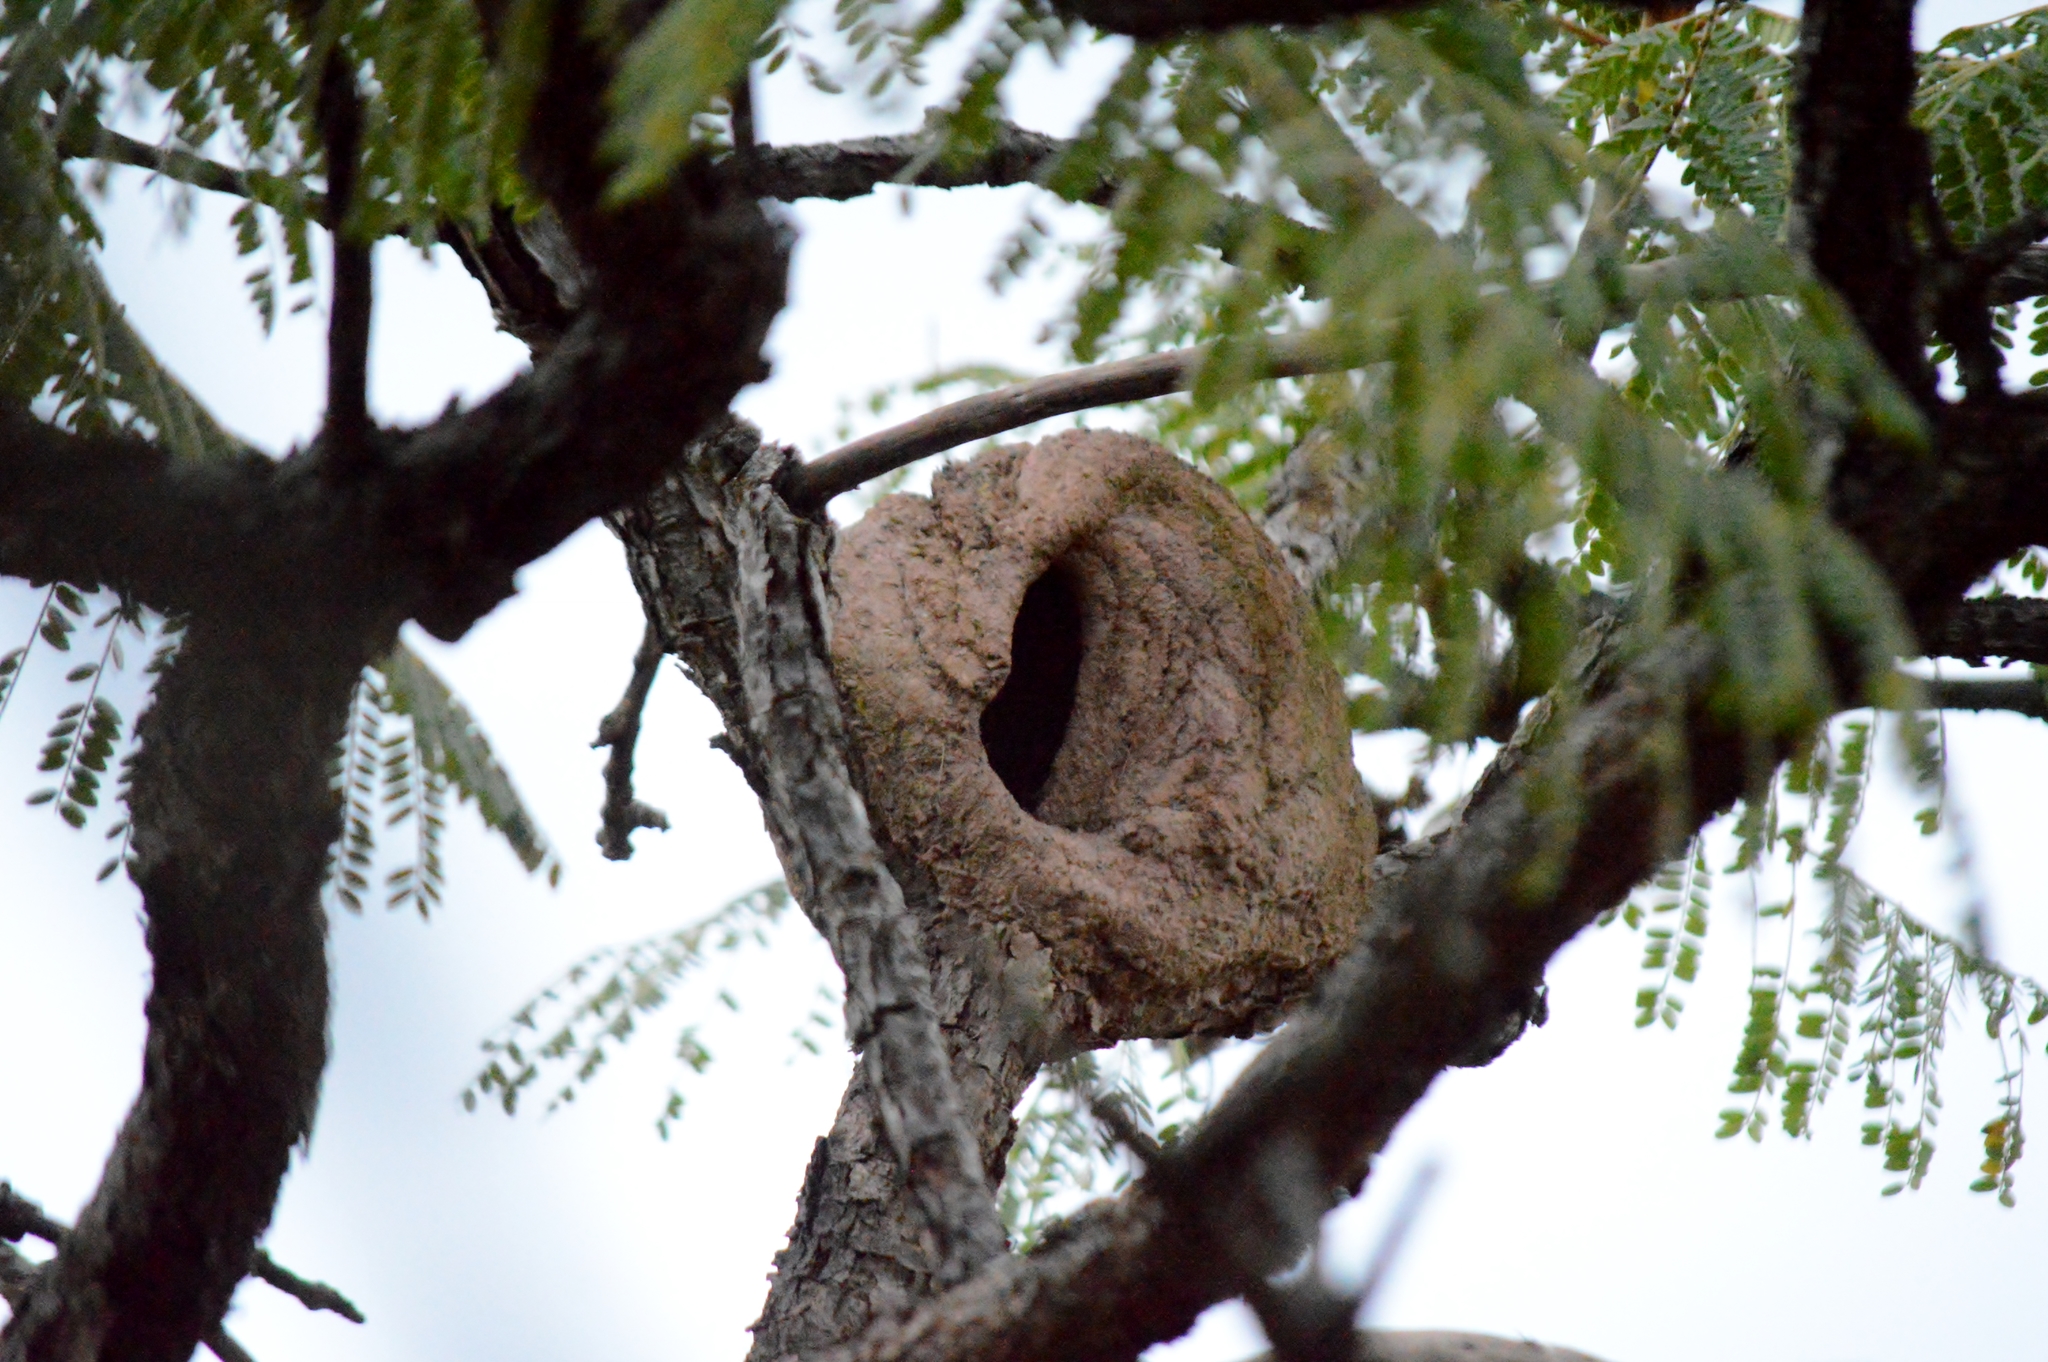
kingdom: Animalia
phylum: Chordata
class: Aves
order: Passeriformes
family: Furnariidae
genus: Furnarius
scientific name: Furnarius rufus
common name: Rufous hornero
